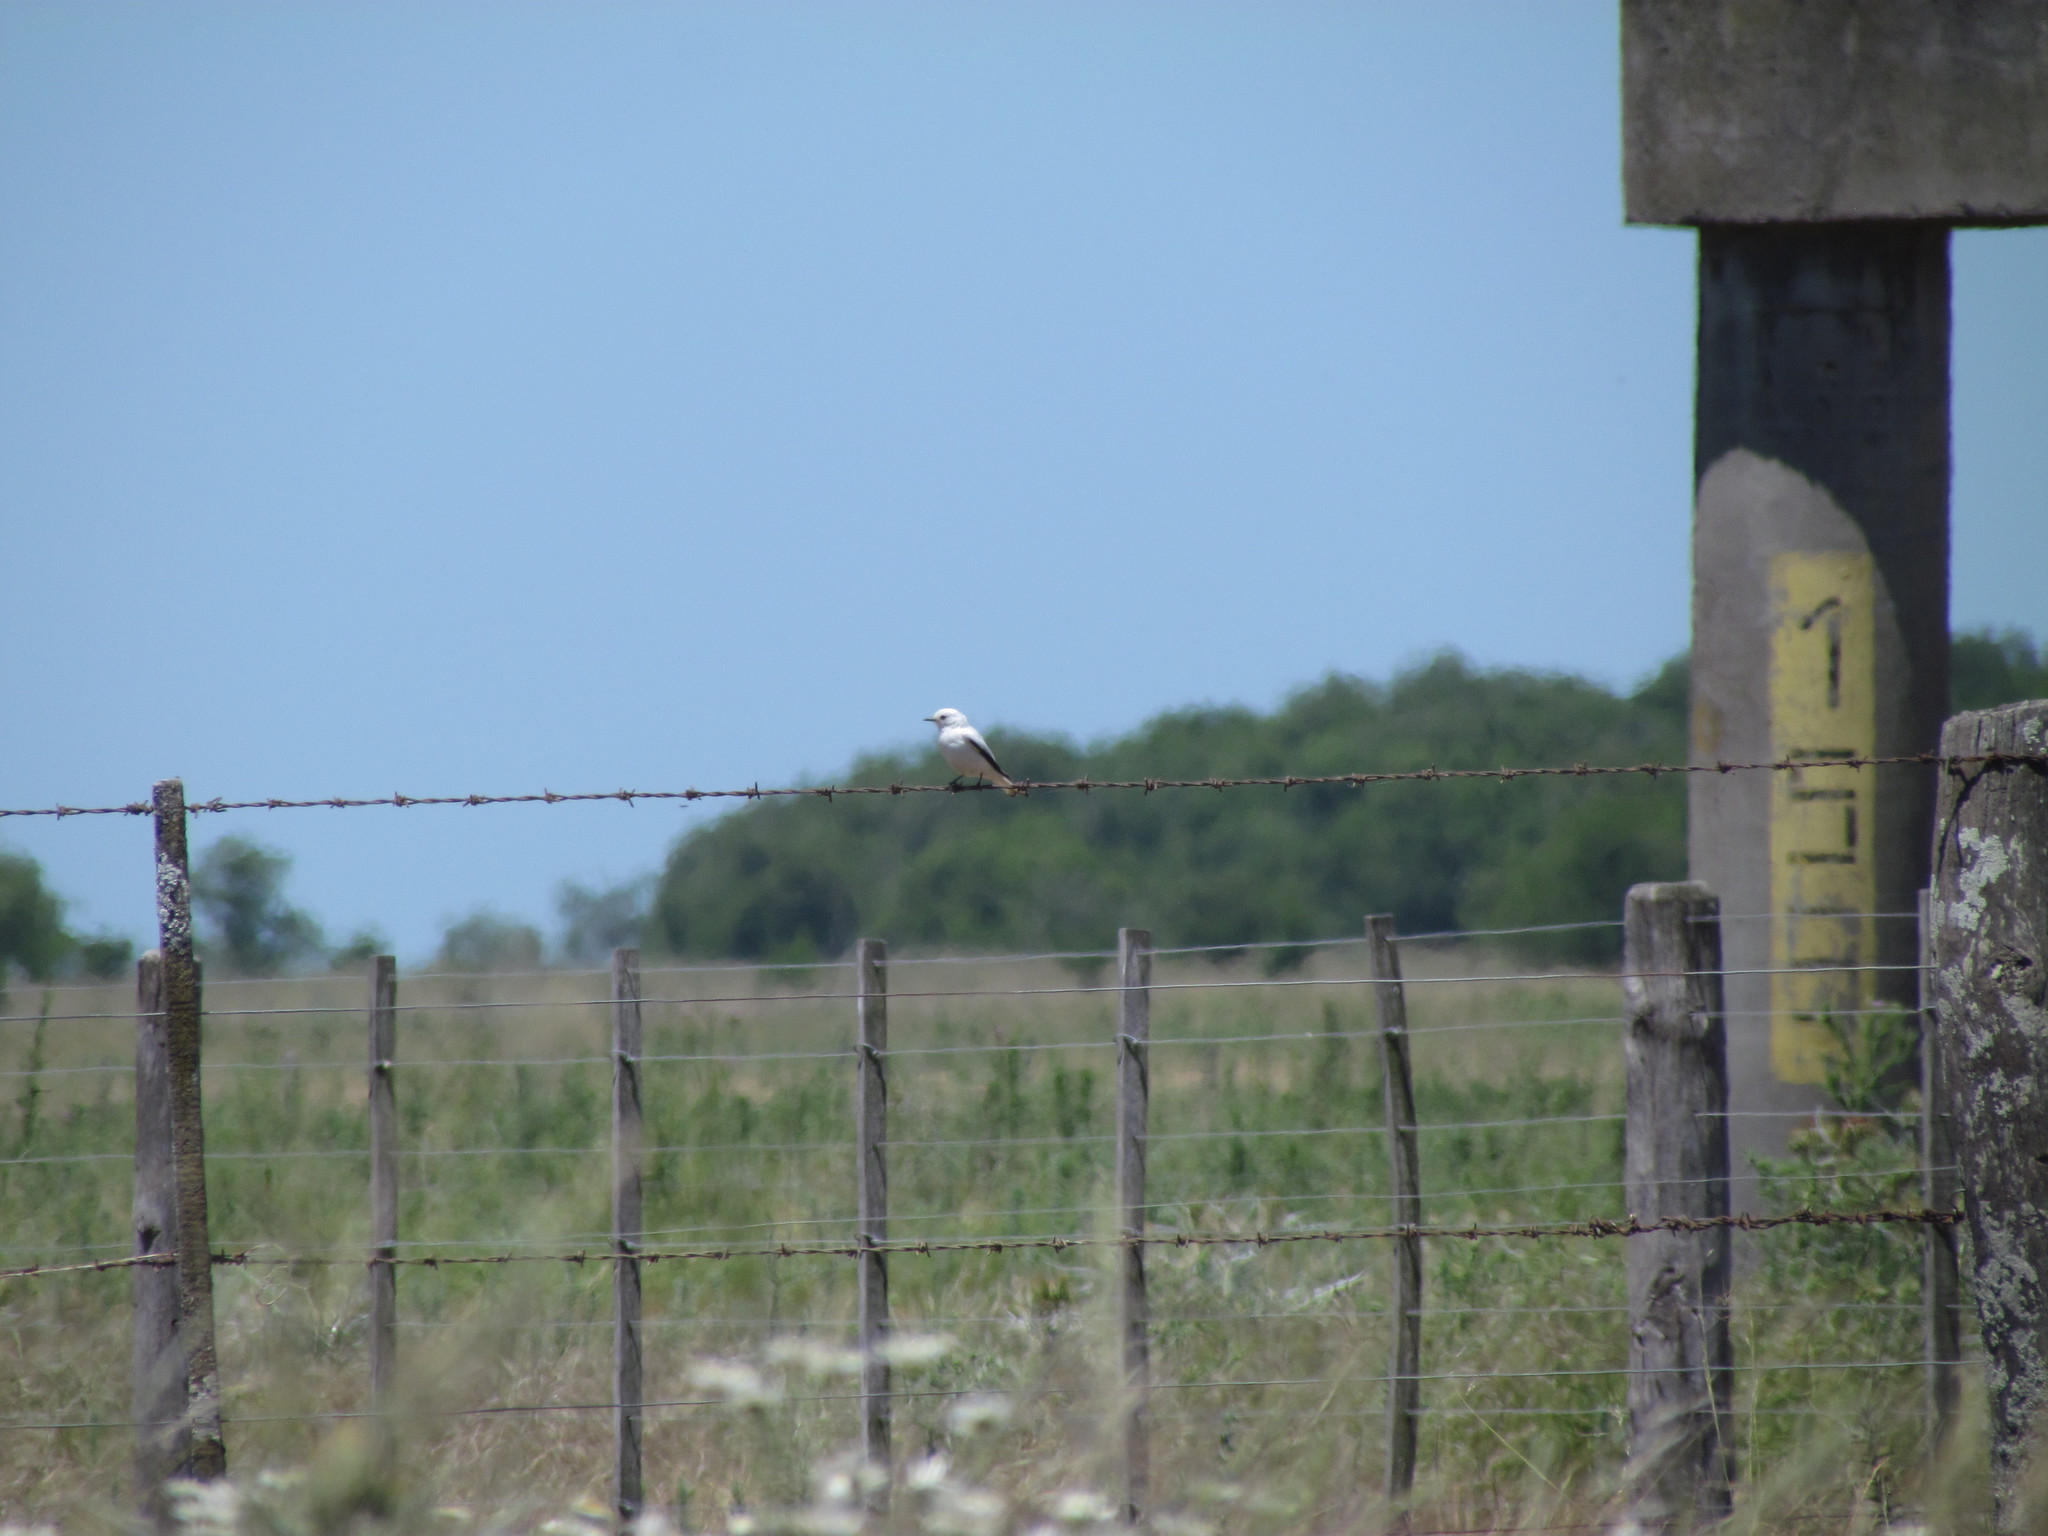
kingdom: Animalia
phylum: Chordata
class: Aves
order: Passeriformes
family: Tyrannidae
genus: Xolmis
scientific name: Xolmis irupero
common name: White monjita
